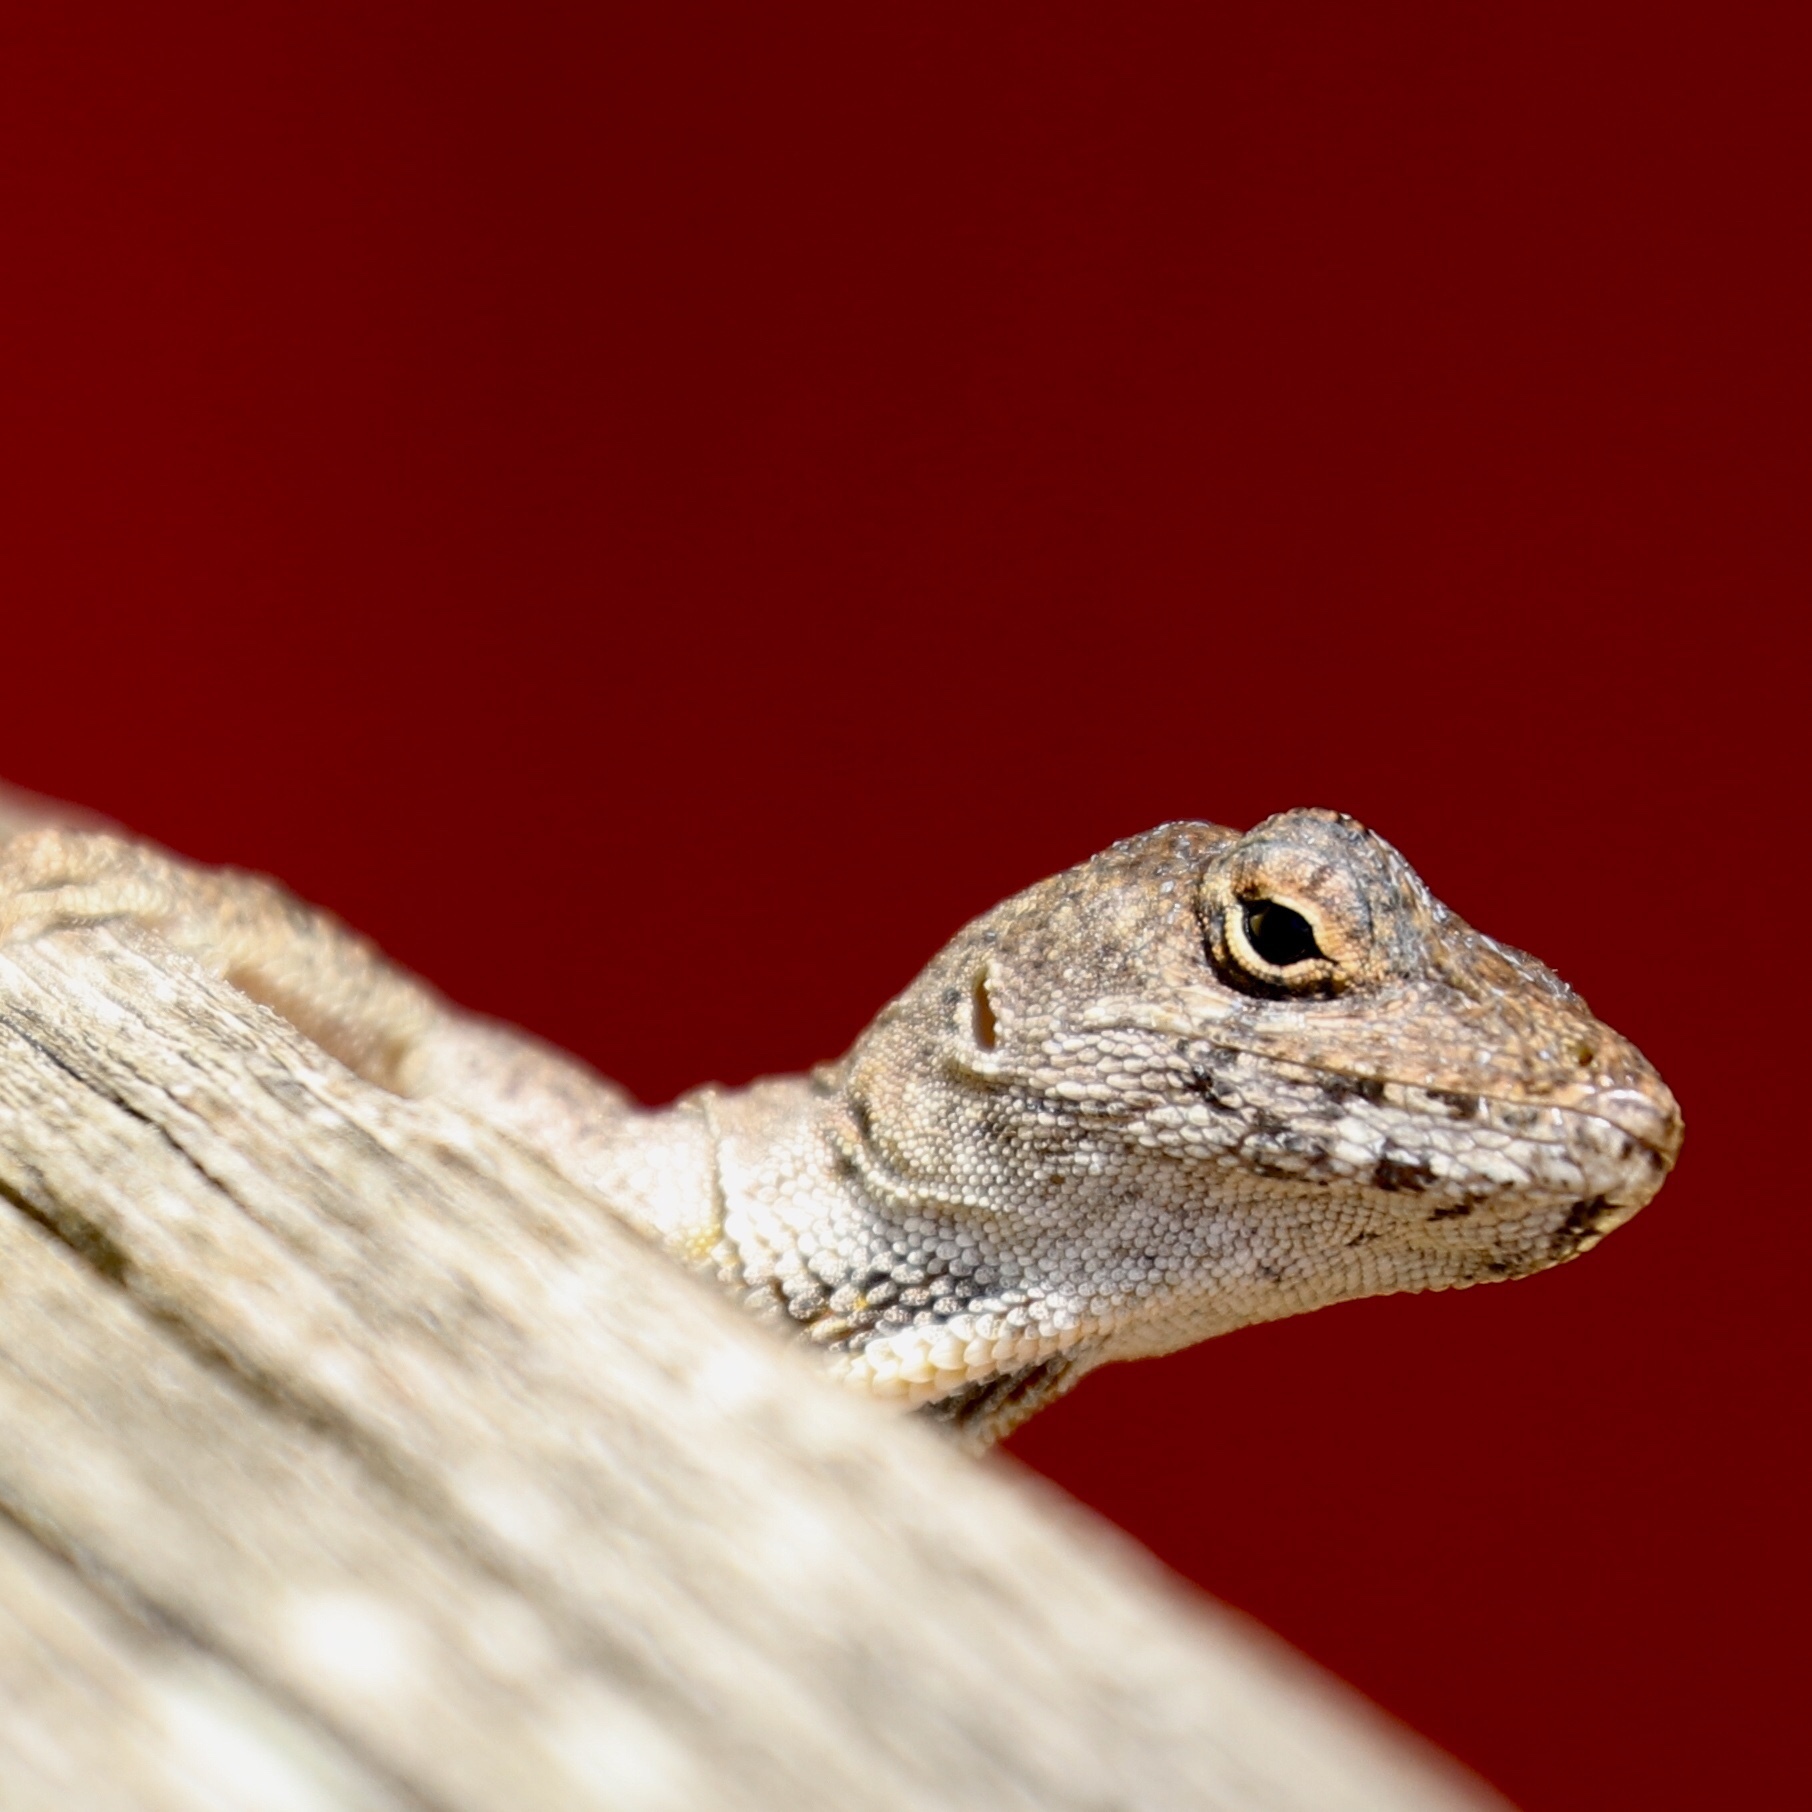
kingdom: Animalia
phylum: Chordata
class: Squamata
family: Dactyloidae
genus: Anolis
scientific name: Anolis sagrei
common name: Brown anole
